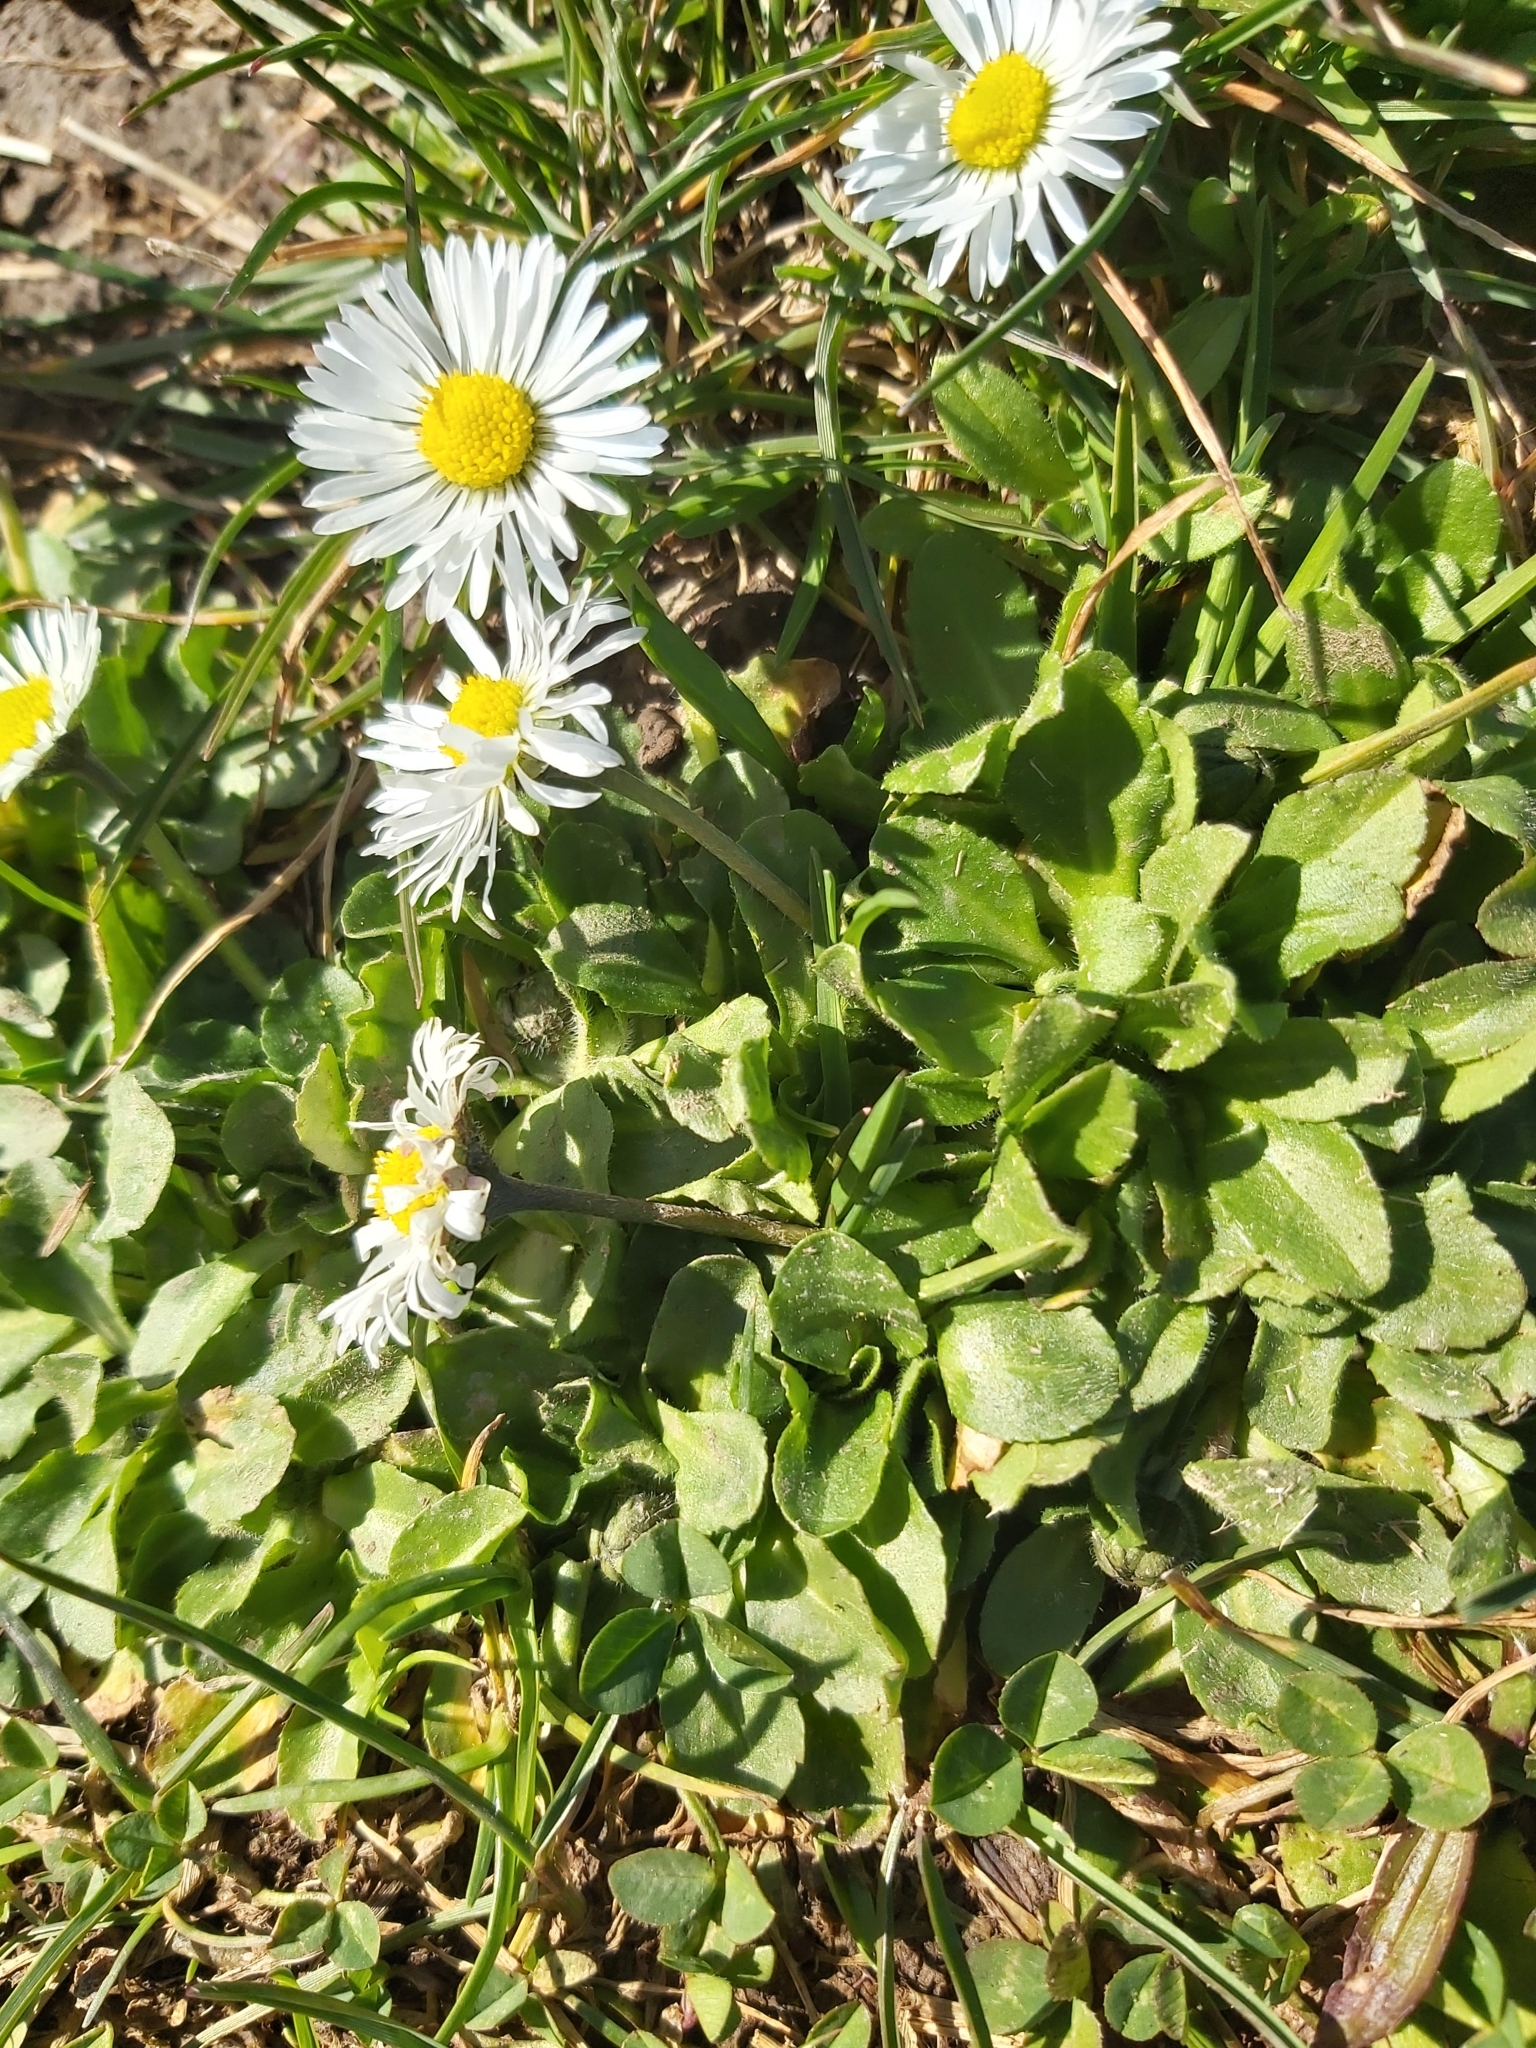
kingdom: Plantae
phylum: Tracheophyta
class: Magnoliopsida
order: Asterales
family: Asteraceae
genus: Bellis
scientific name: Bellis perennis
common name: Lawndaisy
